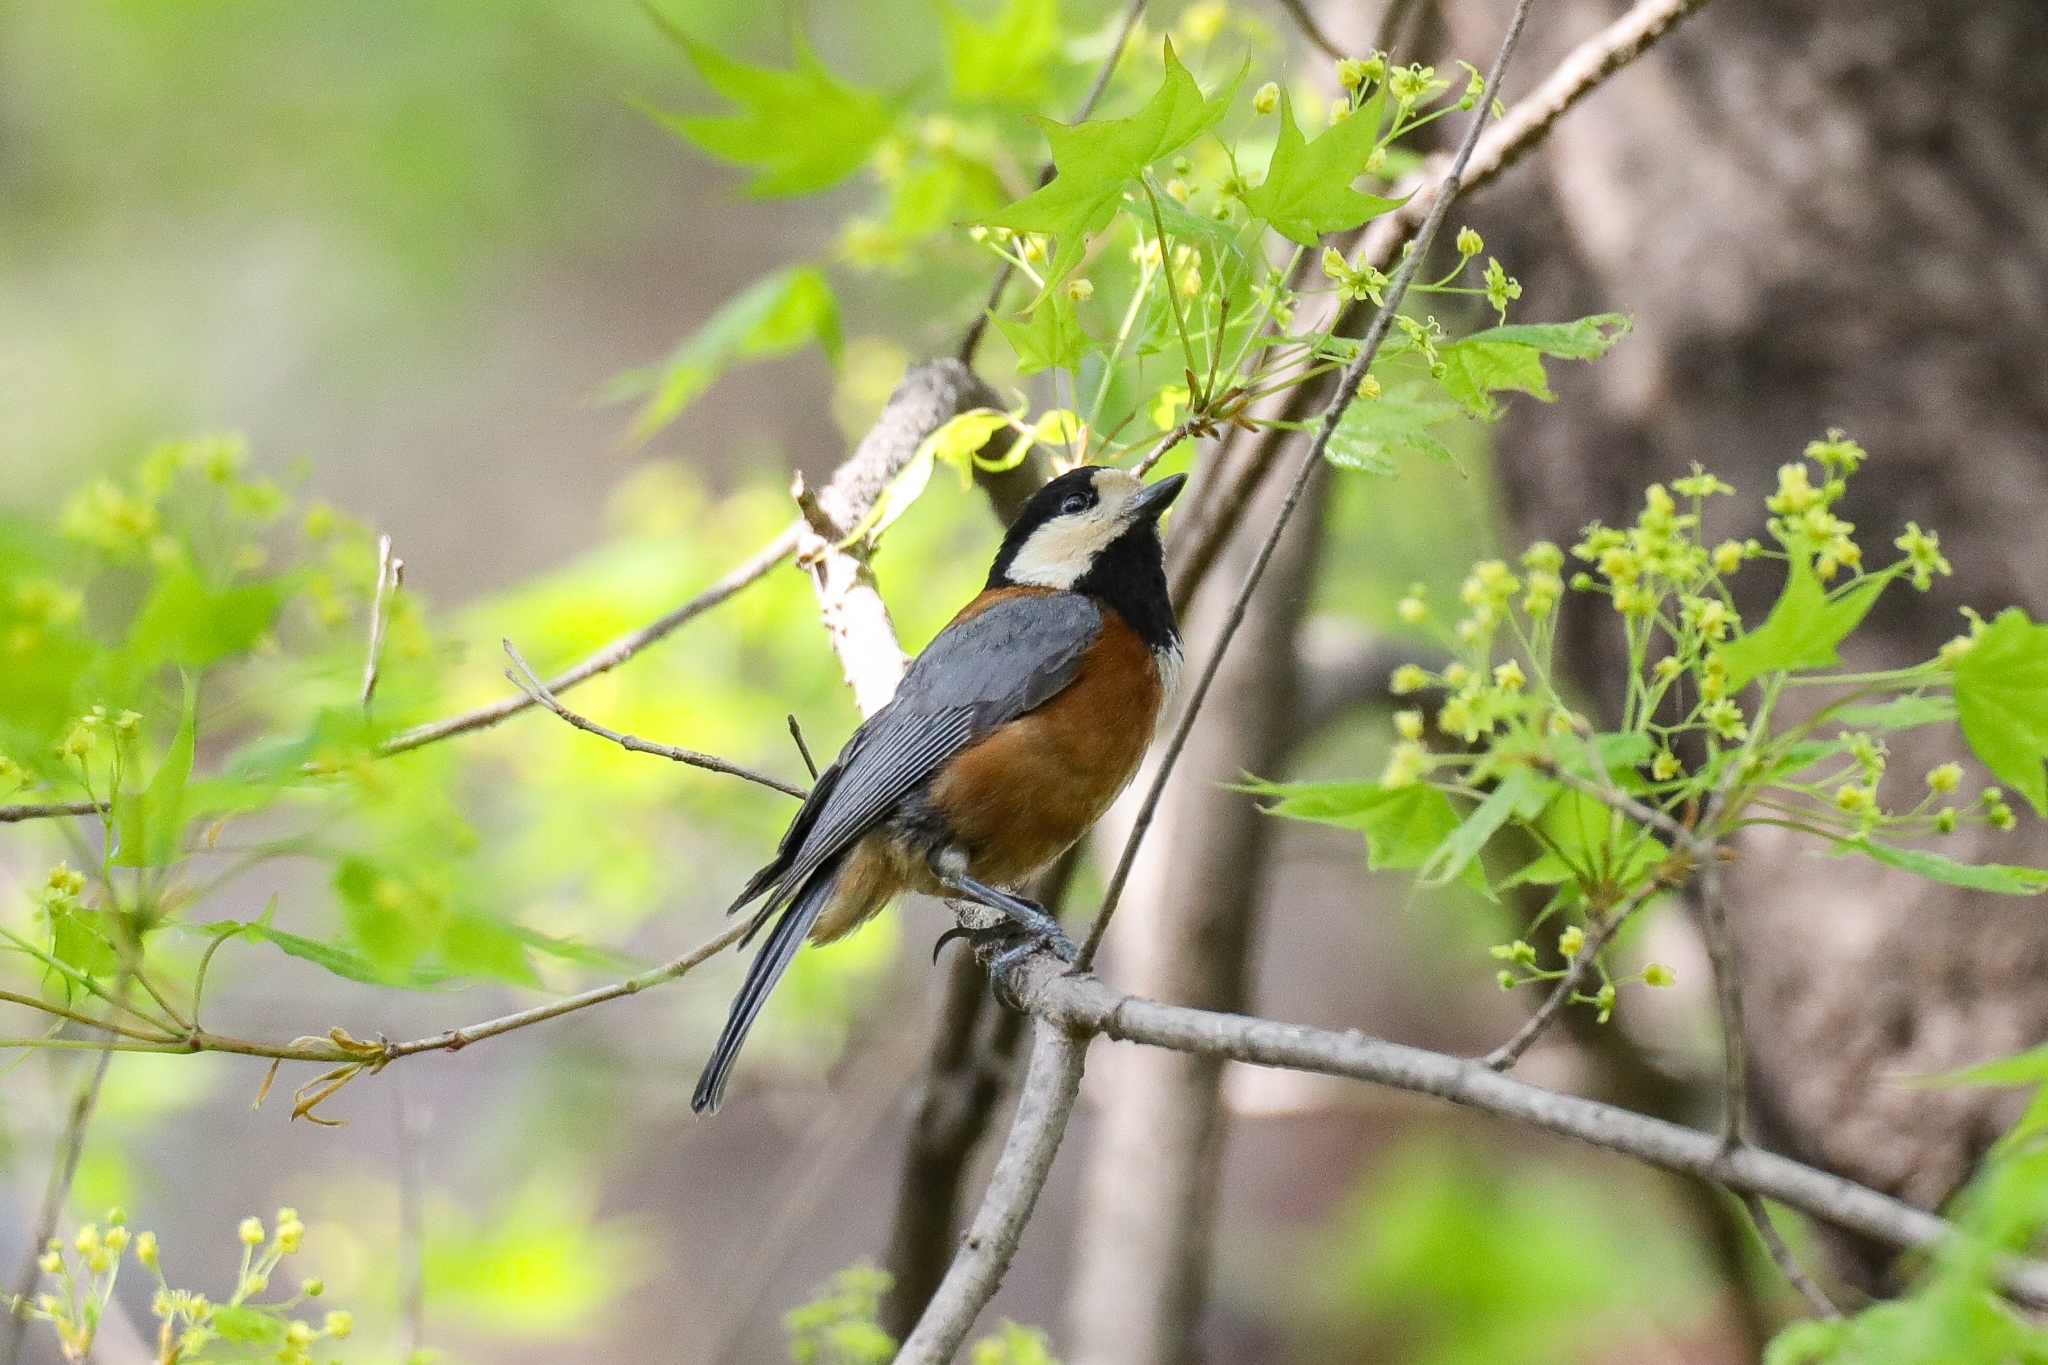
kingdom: Animalia
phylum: Chordata
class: Aves
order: Passeriformes
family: Paridae
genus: Poecile
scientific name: Poecile varius
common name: Varied tit
